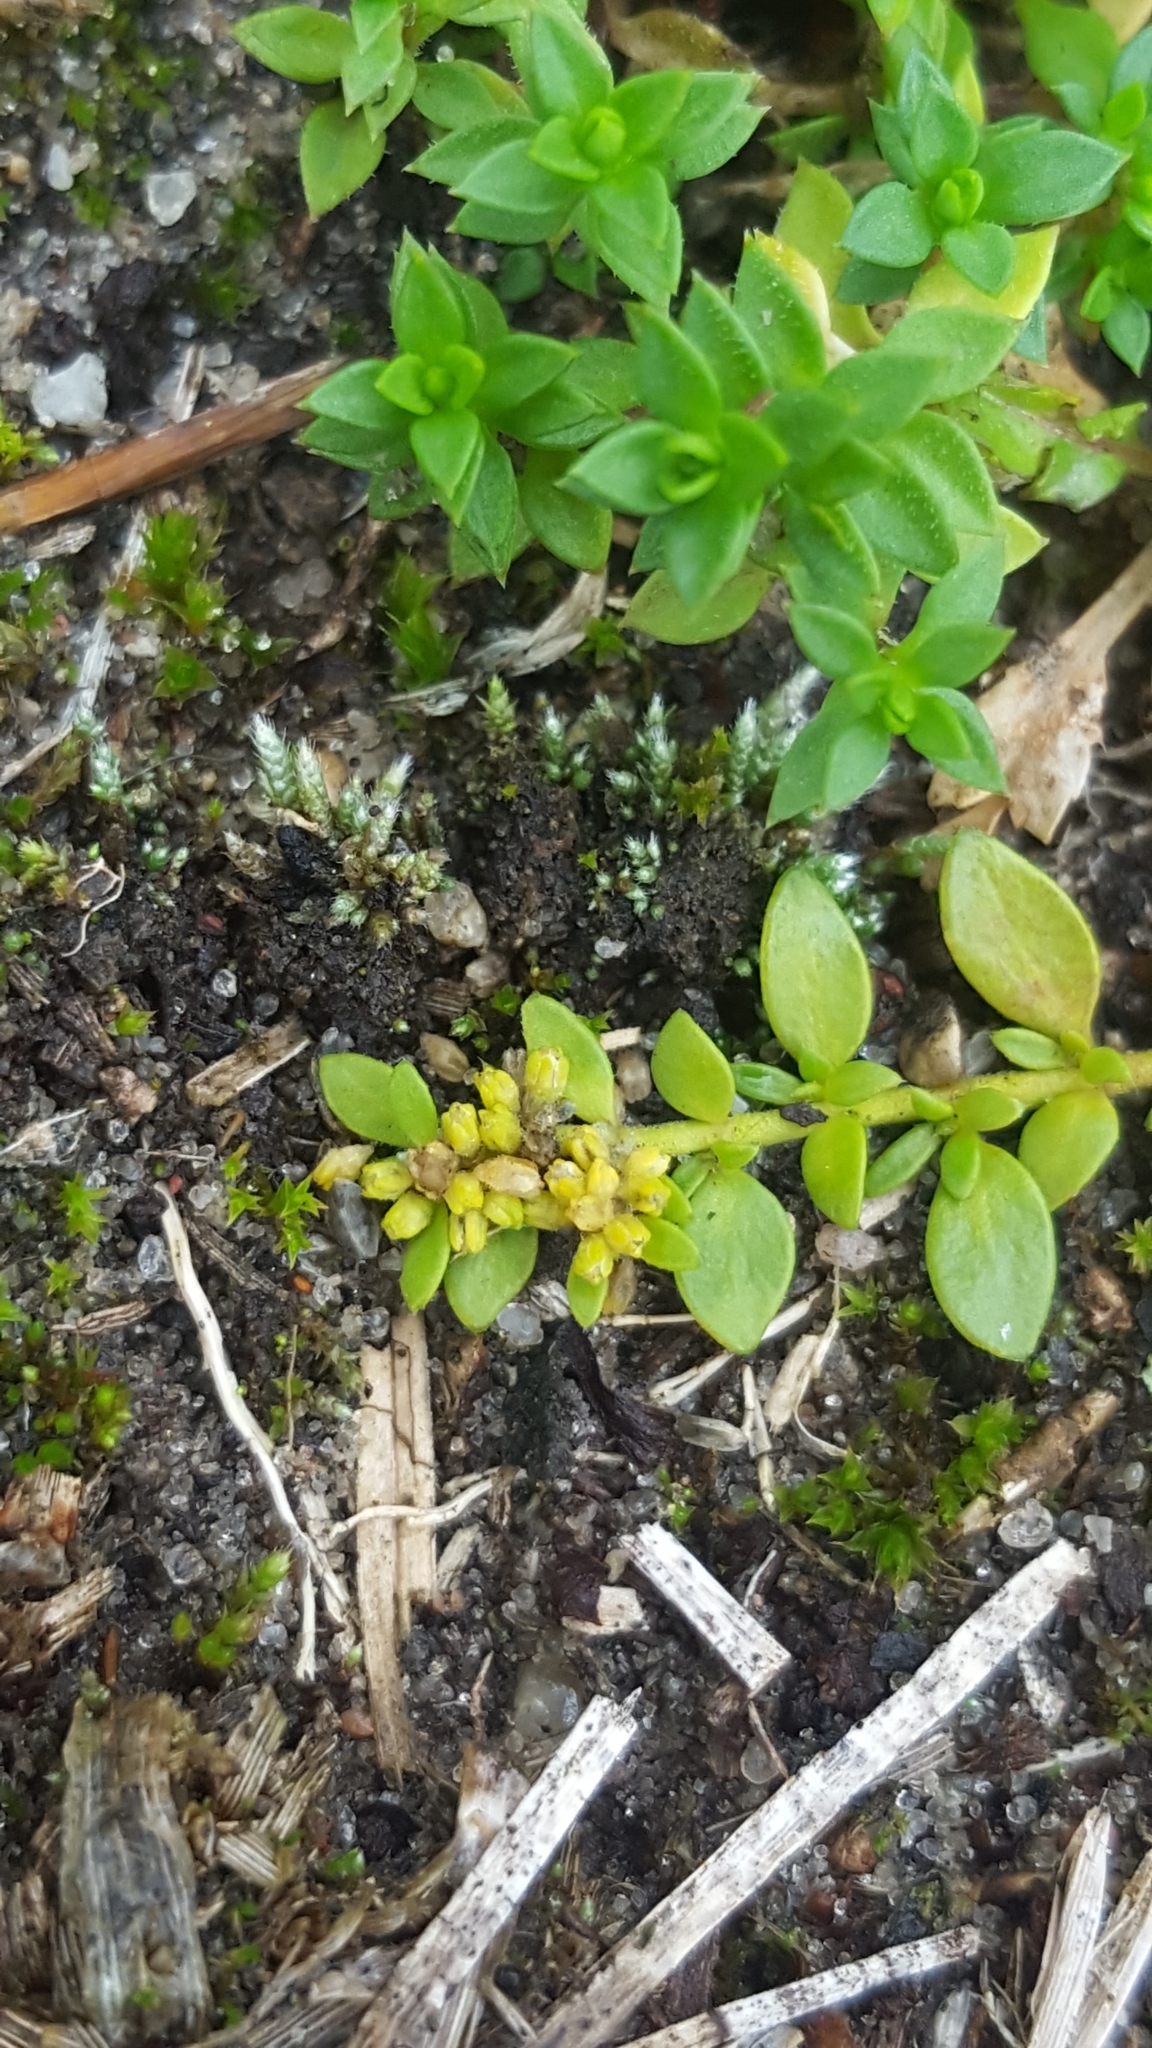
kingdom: Plantae
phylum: Tracheophyta
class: Magnoliopsida
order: Caryophyllales
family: Caryophyllaceae
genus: Herniaria
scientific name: Herniaria glabra
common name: Smooth rupturewort
